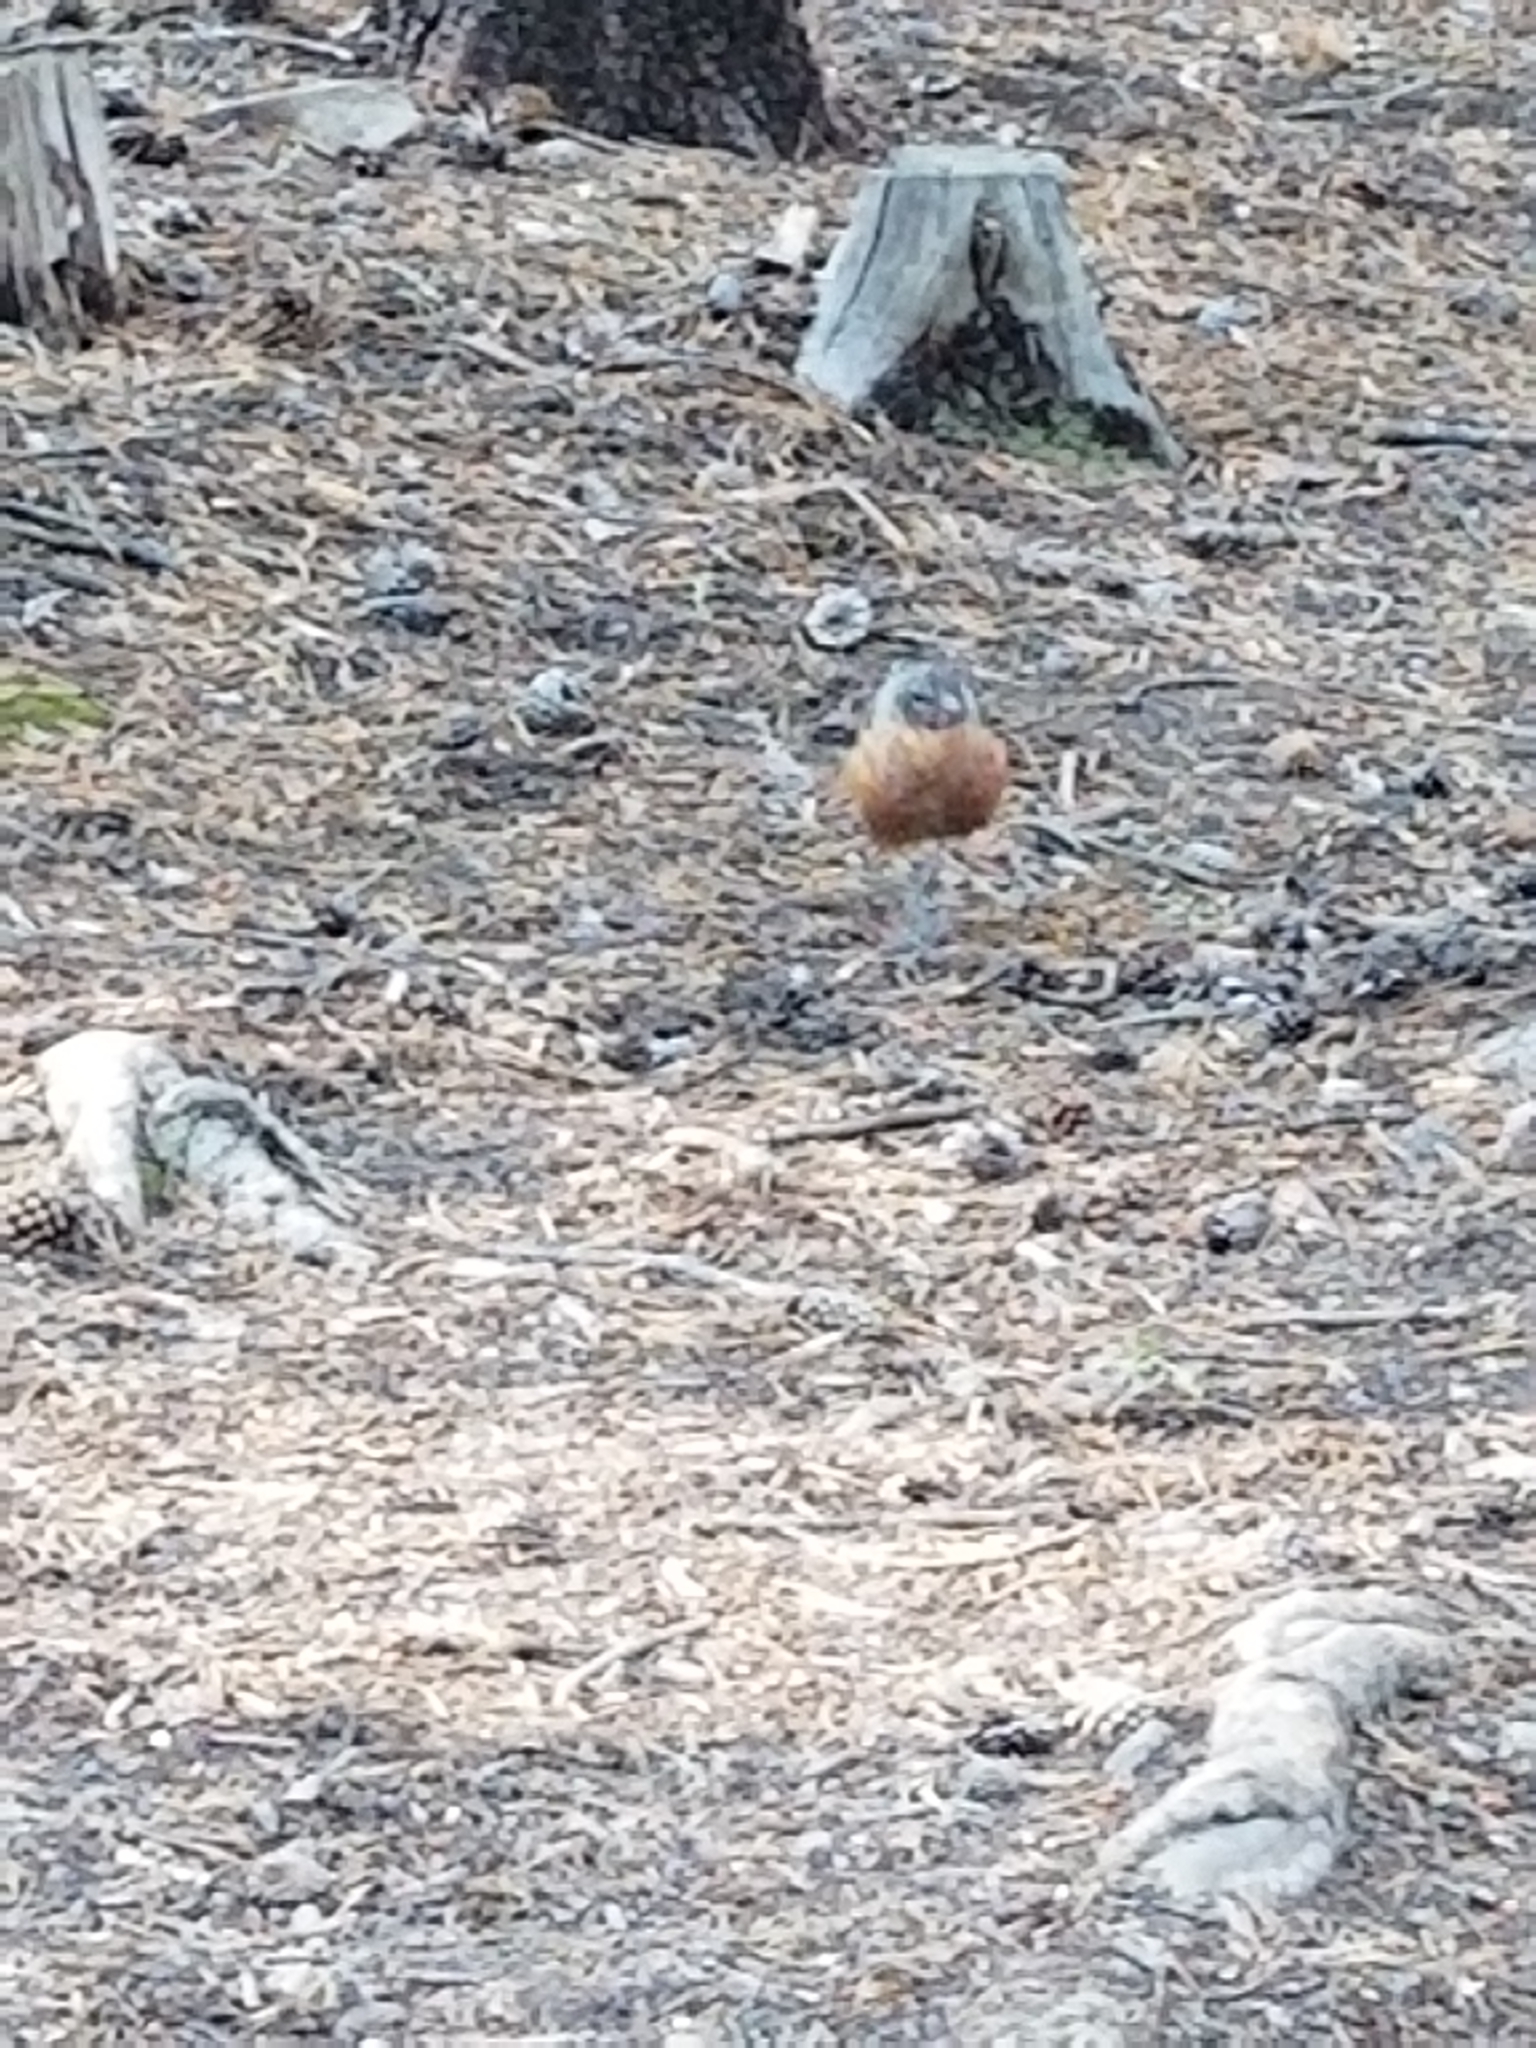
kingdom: Animalia
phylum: Chordata
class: Aves
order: Passeriformes
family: Turdidae
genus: Turdus
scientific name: Turdus migratorius
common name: American robin
